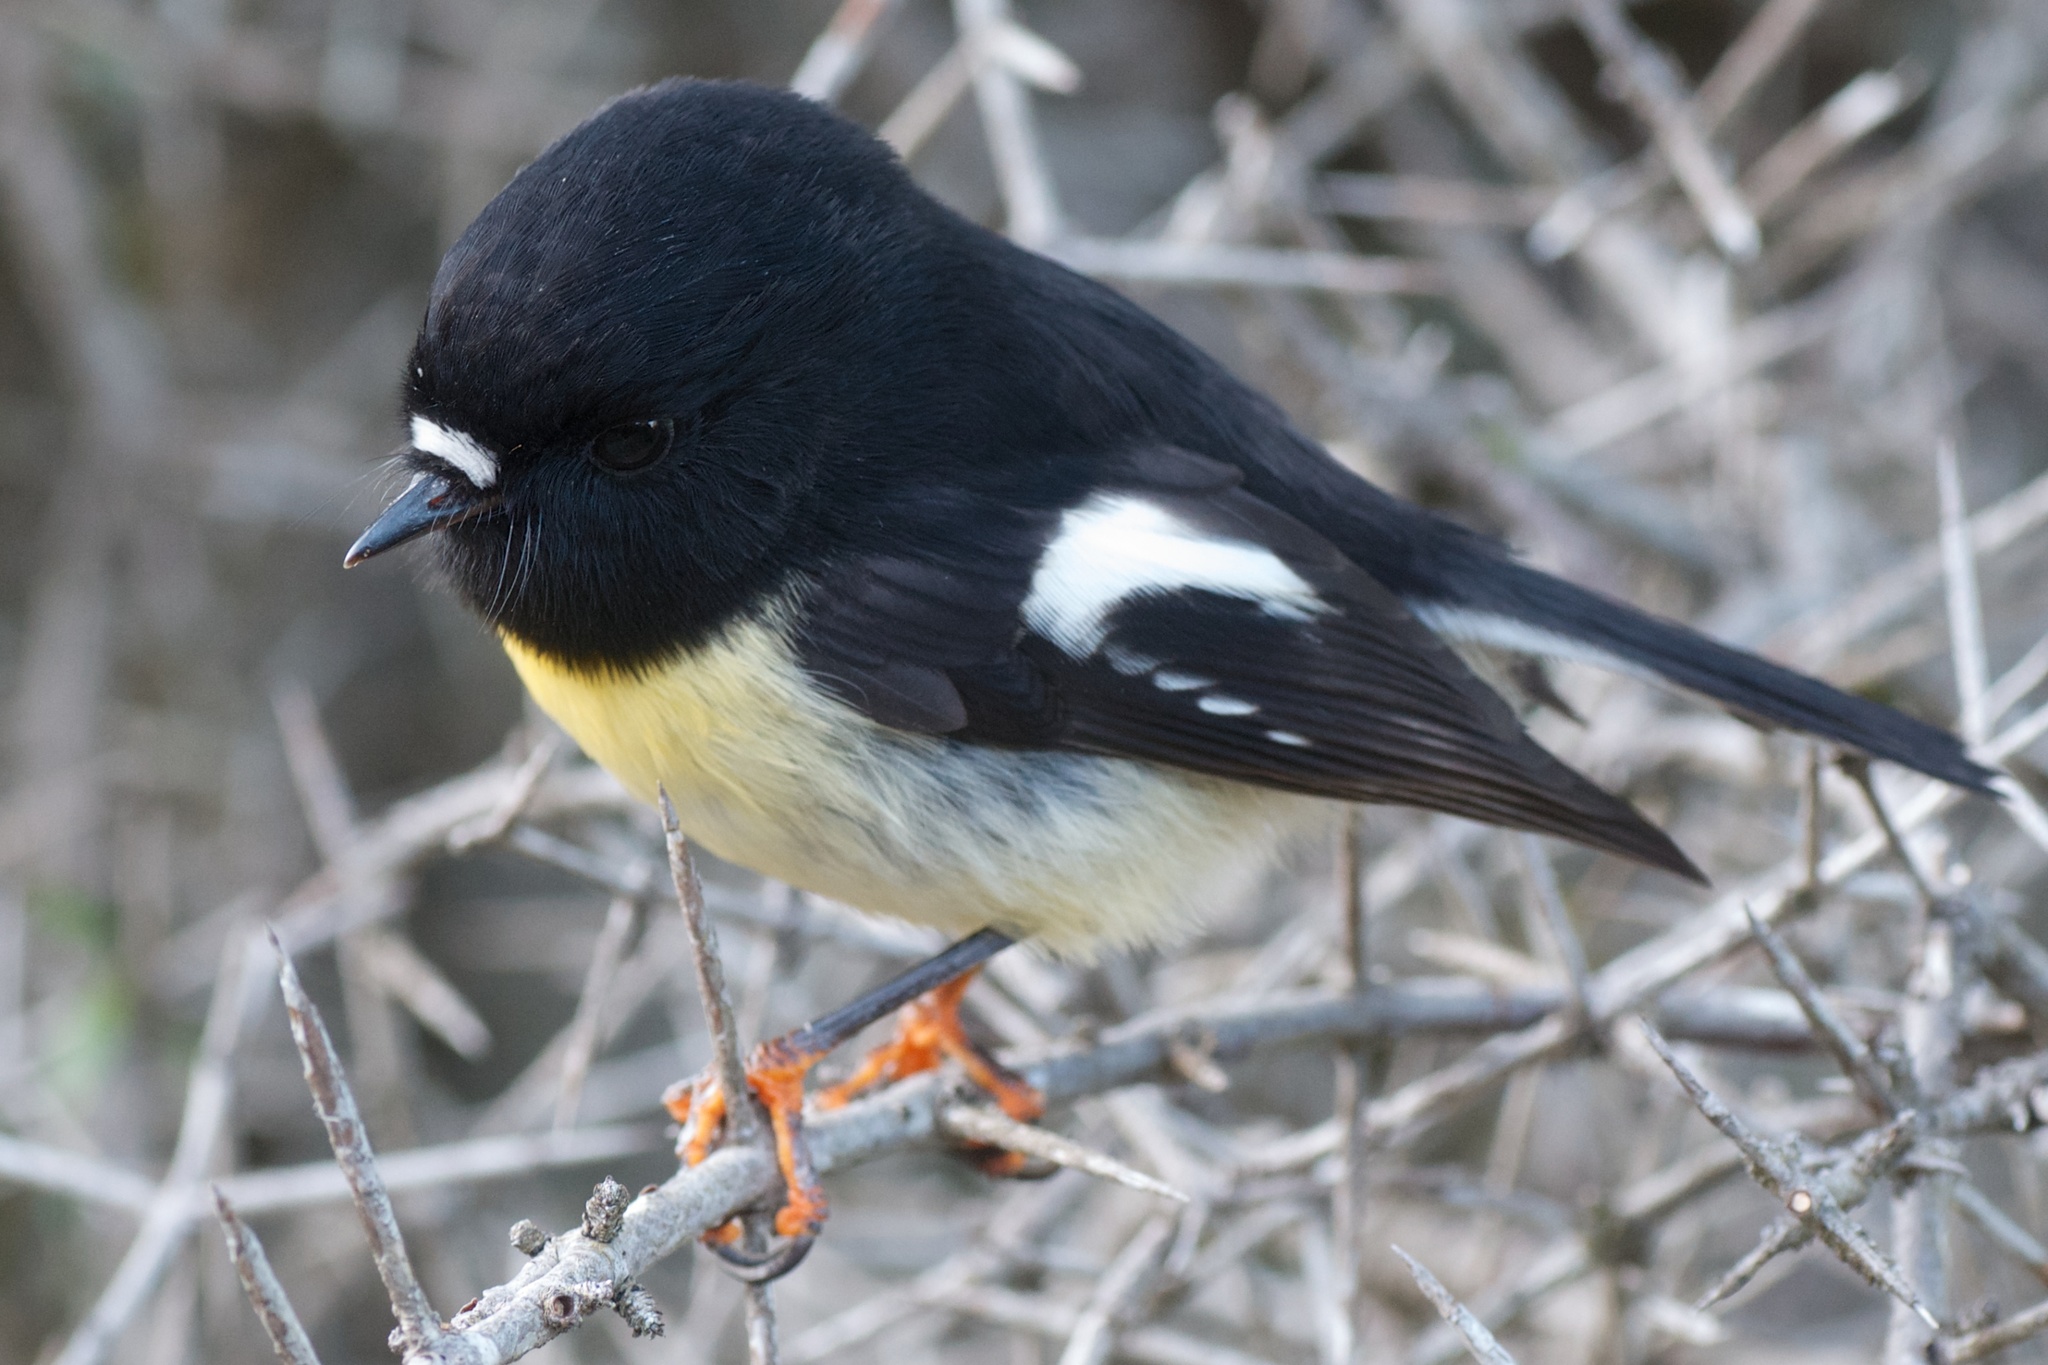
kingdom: Animalia
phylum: Chordata
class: Aves
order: Passeriformes
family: Petroicidae
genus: Petroica
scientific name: Petroica macrocephala
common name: Tomtit
